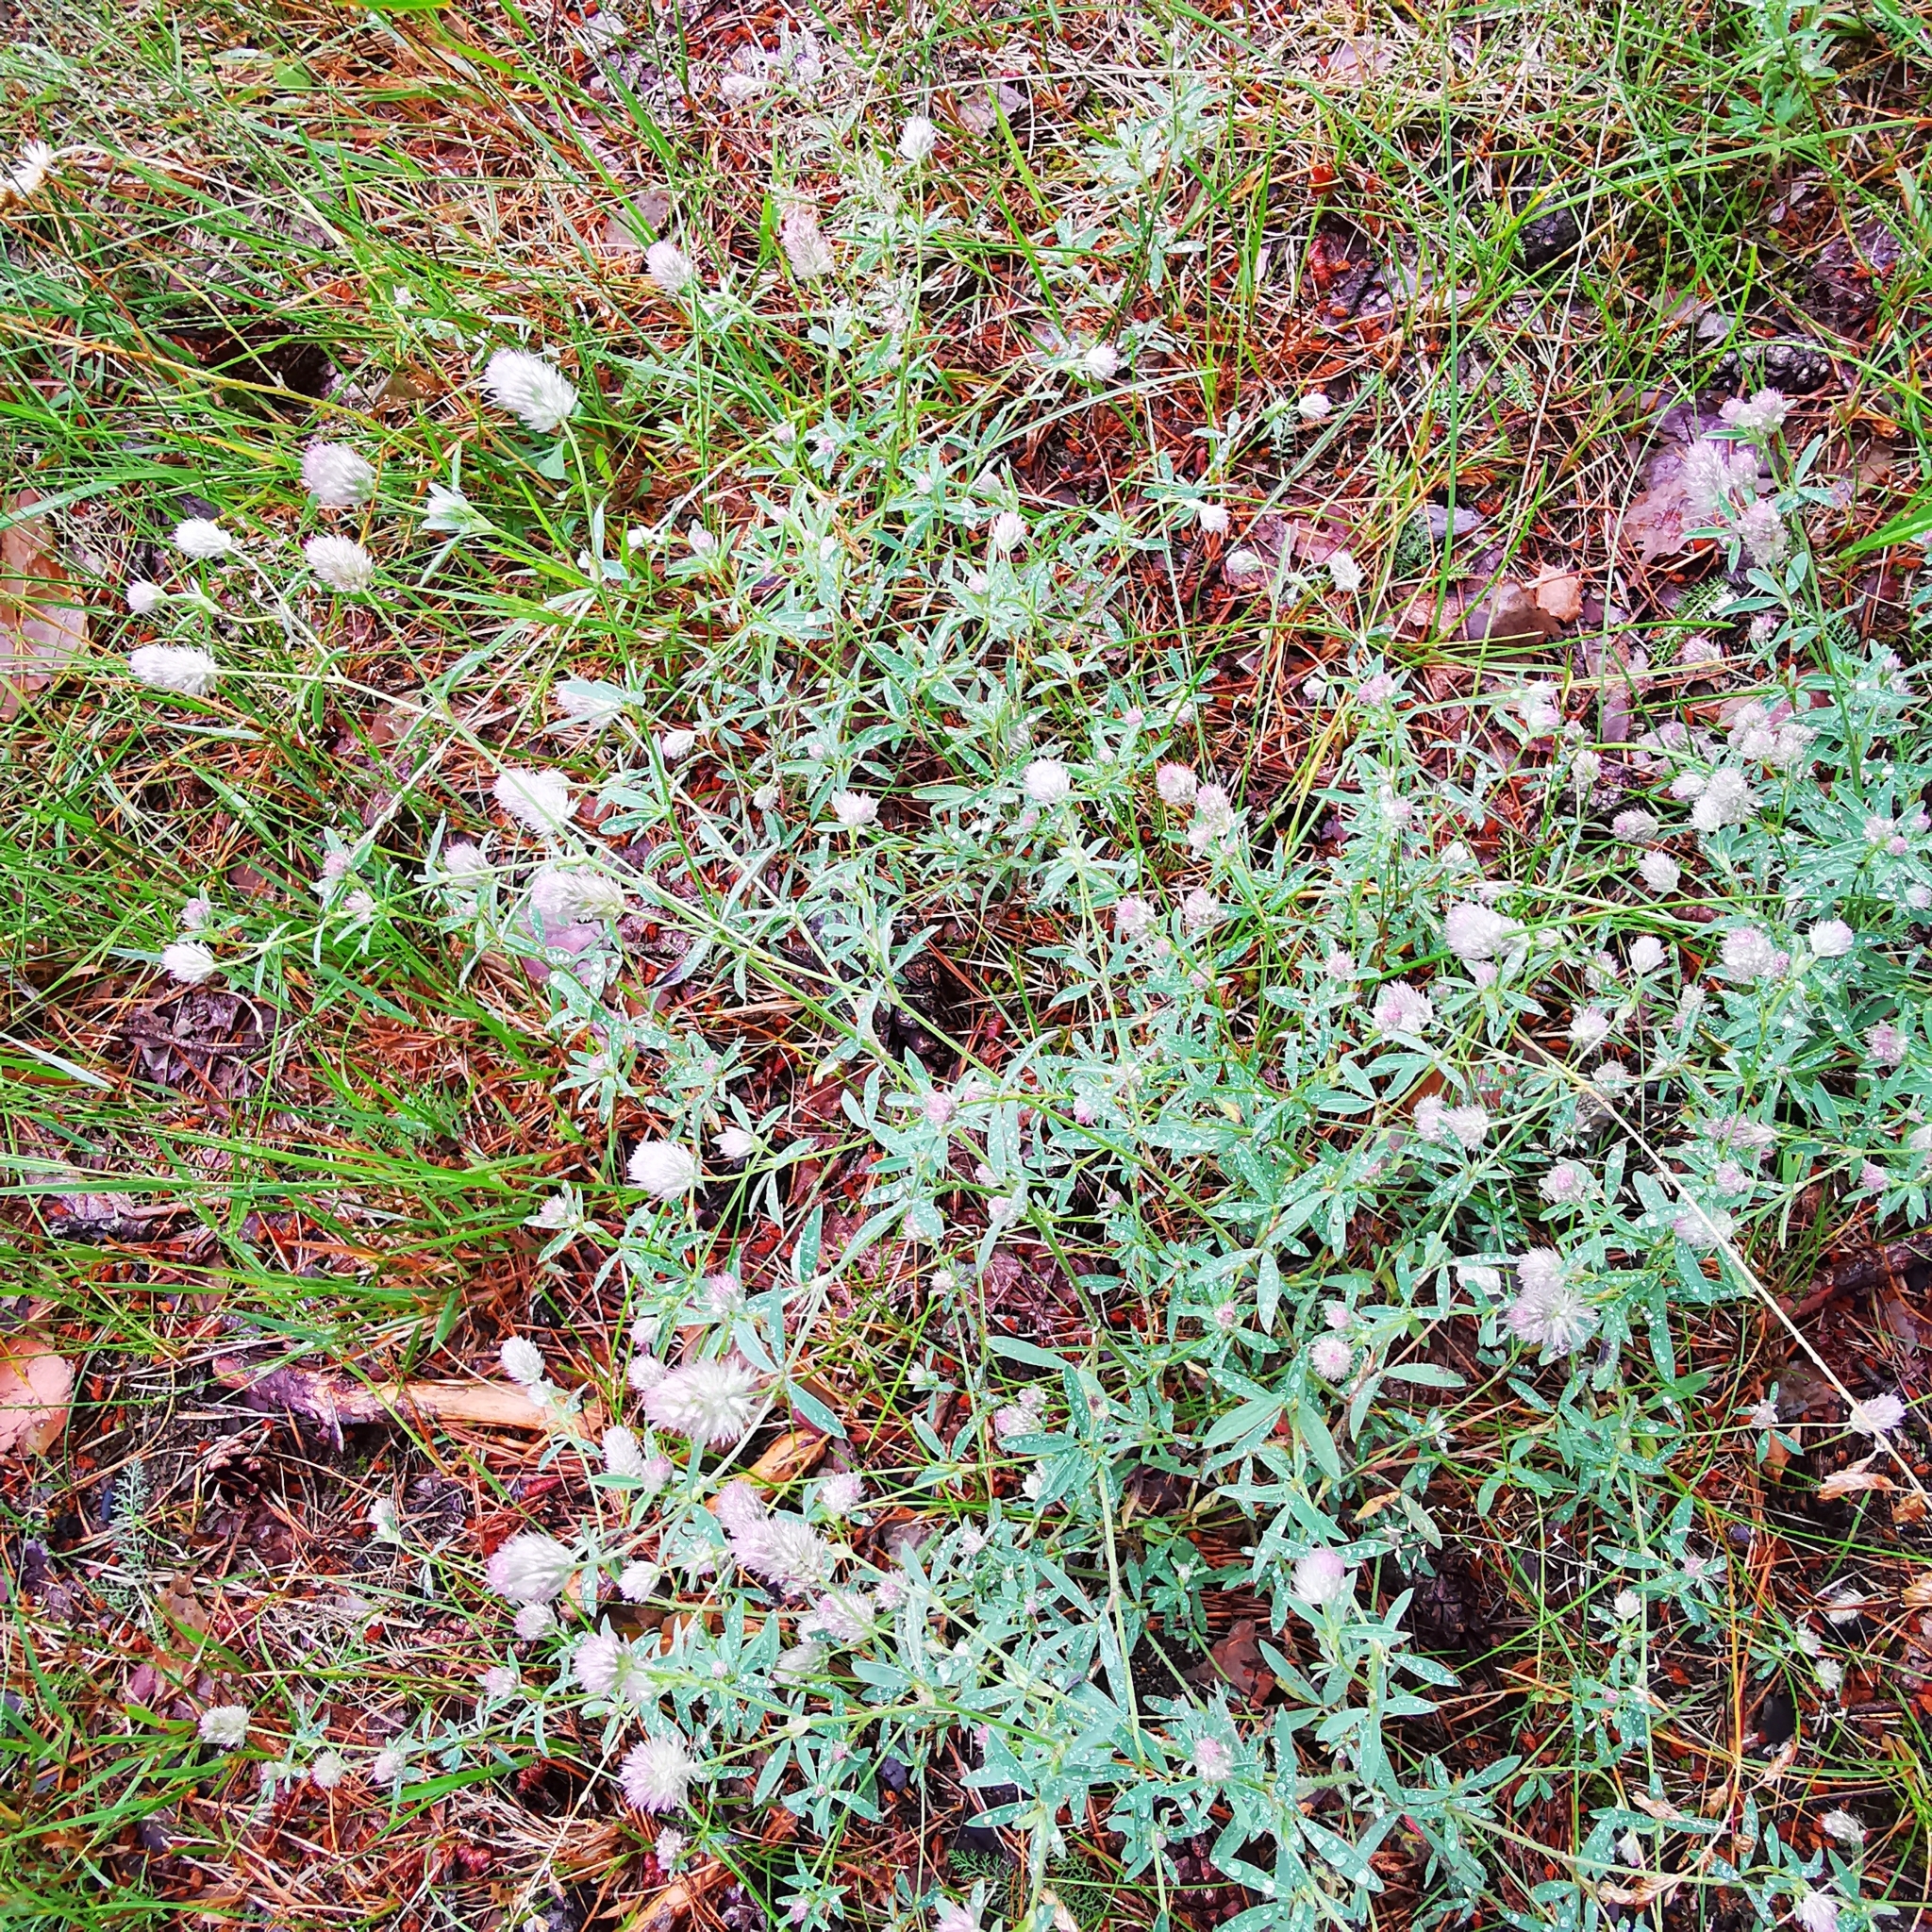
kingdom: Plantae
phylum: Tracheophyta
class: Magnoliopsida
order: Fabales
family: Fabaceae
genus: Trifolium
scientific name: Trifolium arvense
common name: Hare's-foot clover
